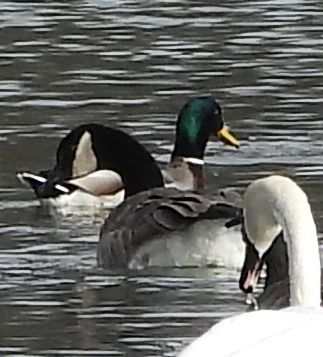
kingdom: Animalia
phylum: Chordata
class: Aves
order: Anseriformes
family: Anatidae
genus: Anas
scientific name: Anas platyrhynchos
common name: Mallard
